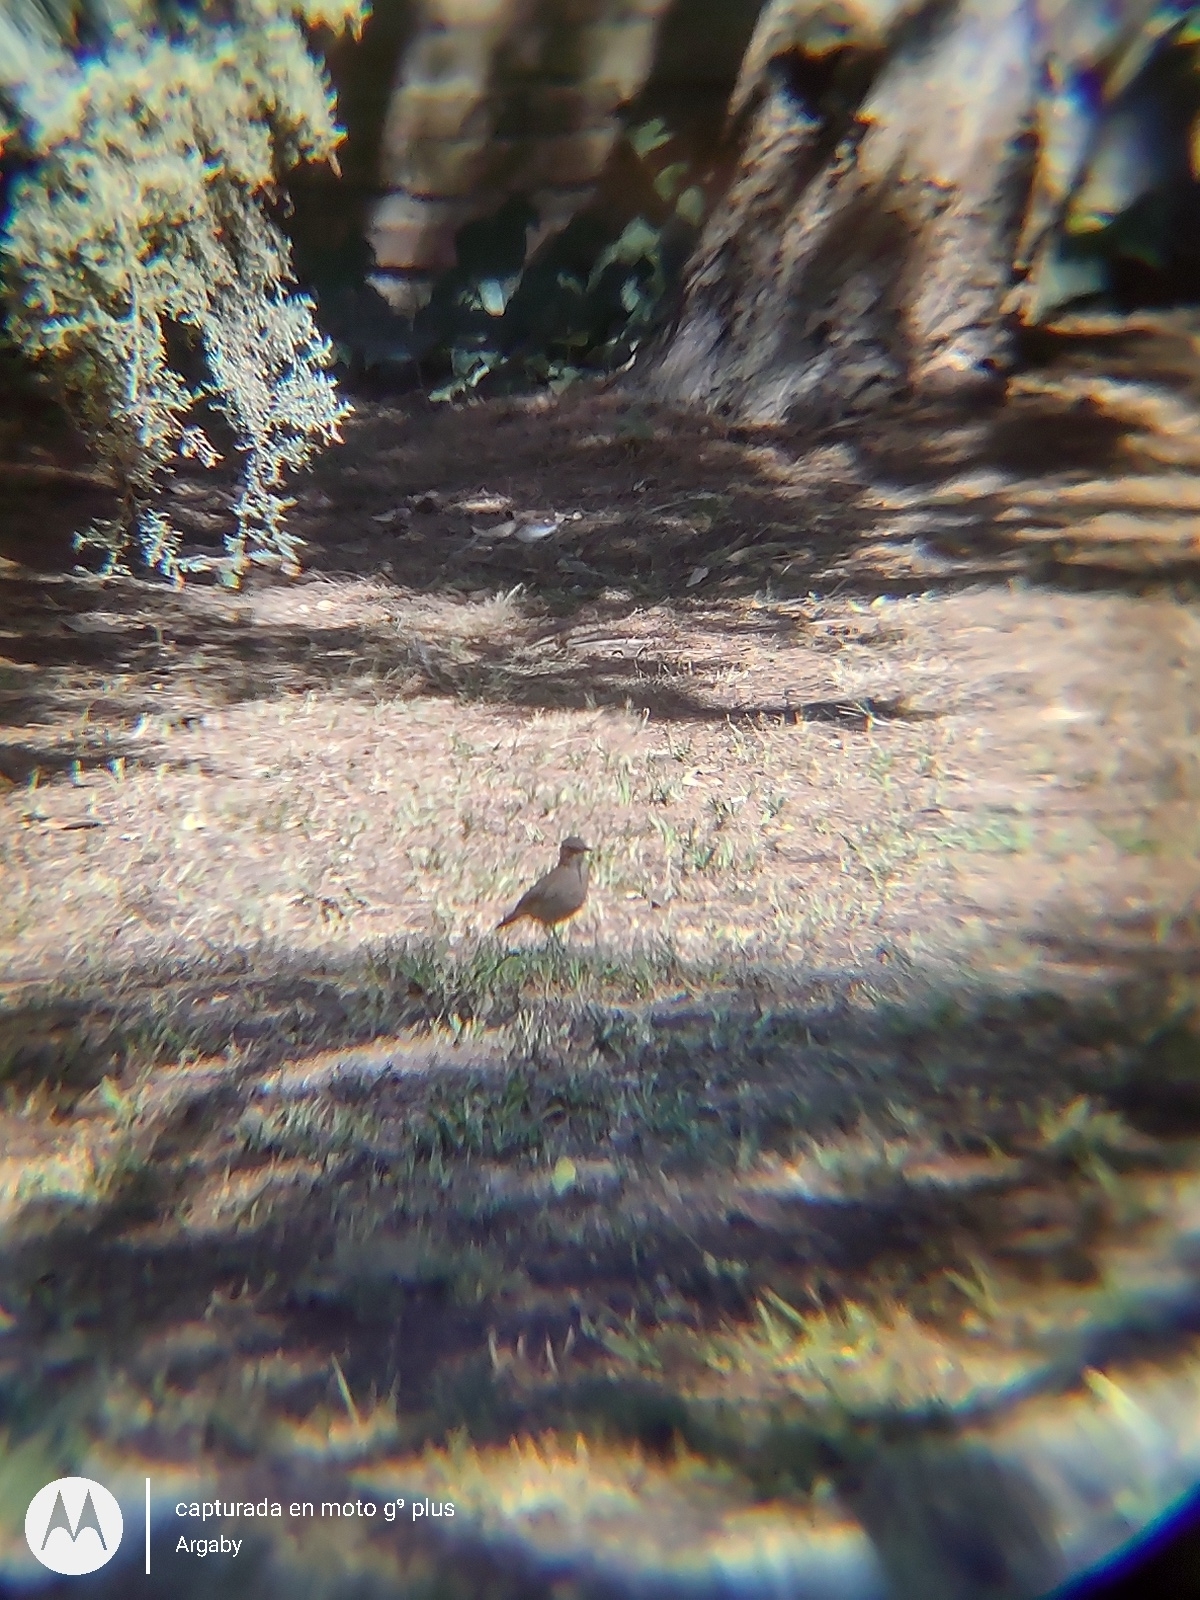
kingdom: Animalia
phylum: Chordata
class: Aves
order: Passeriformes
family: Furnariidae
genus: Furnarius
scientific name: Furnarius rufus
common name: Rufous hornero
